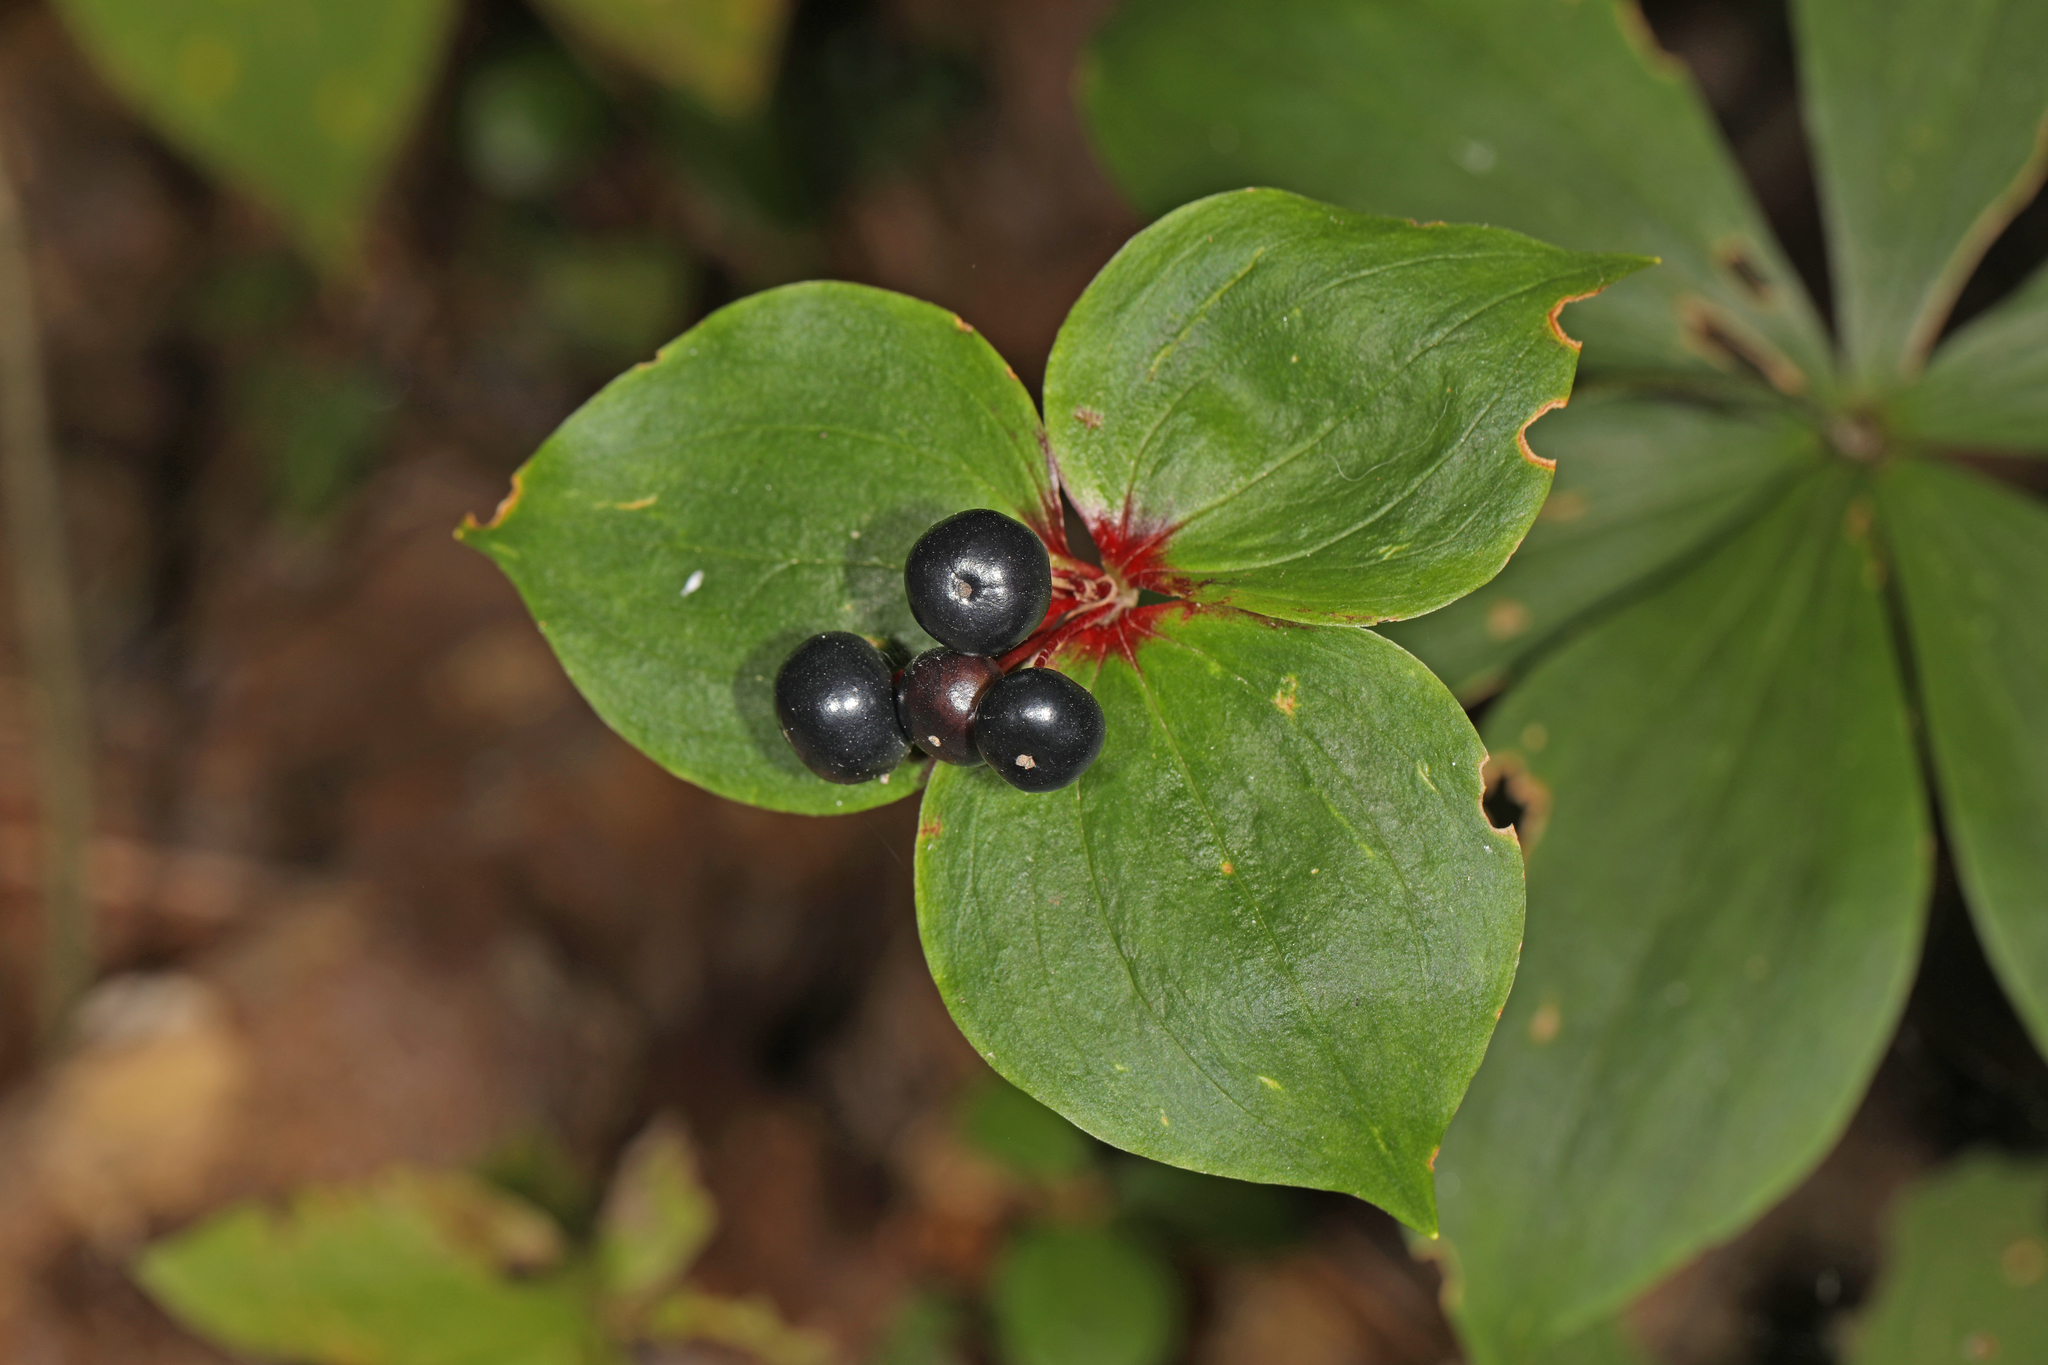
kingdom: Plantae
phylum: Tracheophyta
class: Liliopsida
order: Liliales
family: Liliaceae
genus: Medeola
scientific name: Medeola virginiana
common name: Indian cucumber-root
